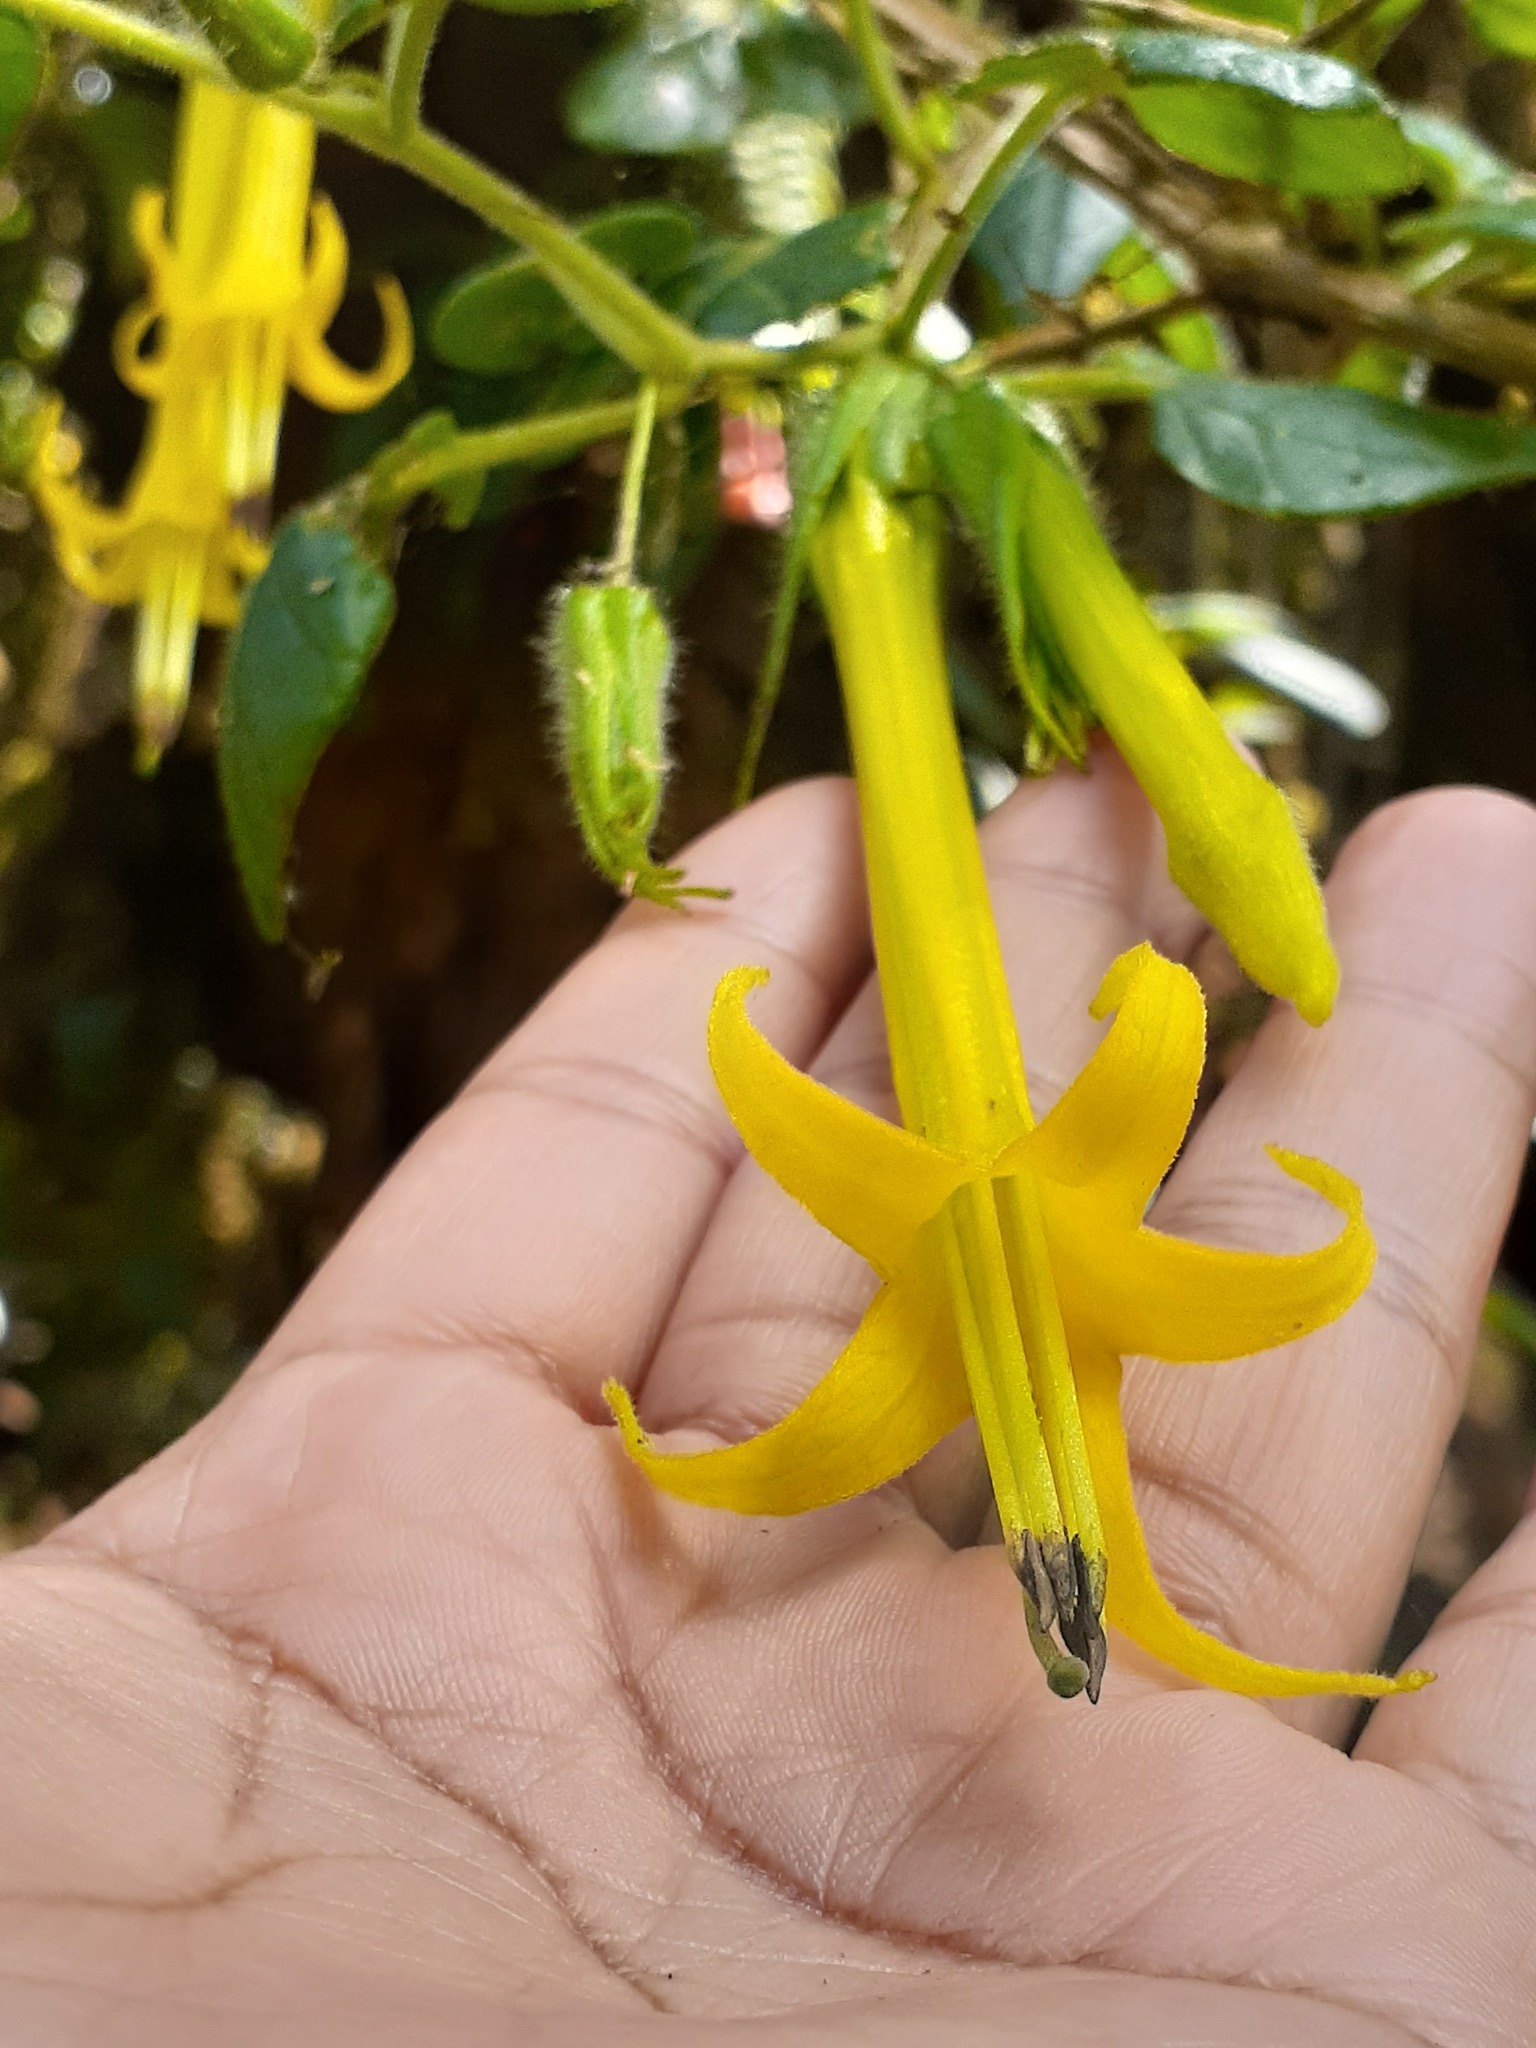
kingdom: Plantae
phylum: Tracheophyta
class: Magnoliopsida
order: Solanales
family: Solanaceae
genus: Salpichroa
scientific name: Salpichroa didierana
